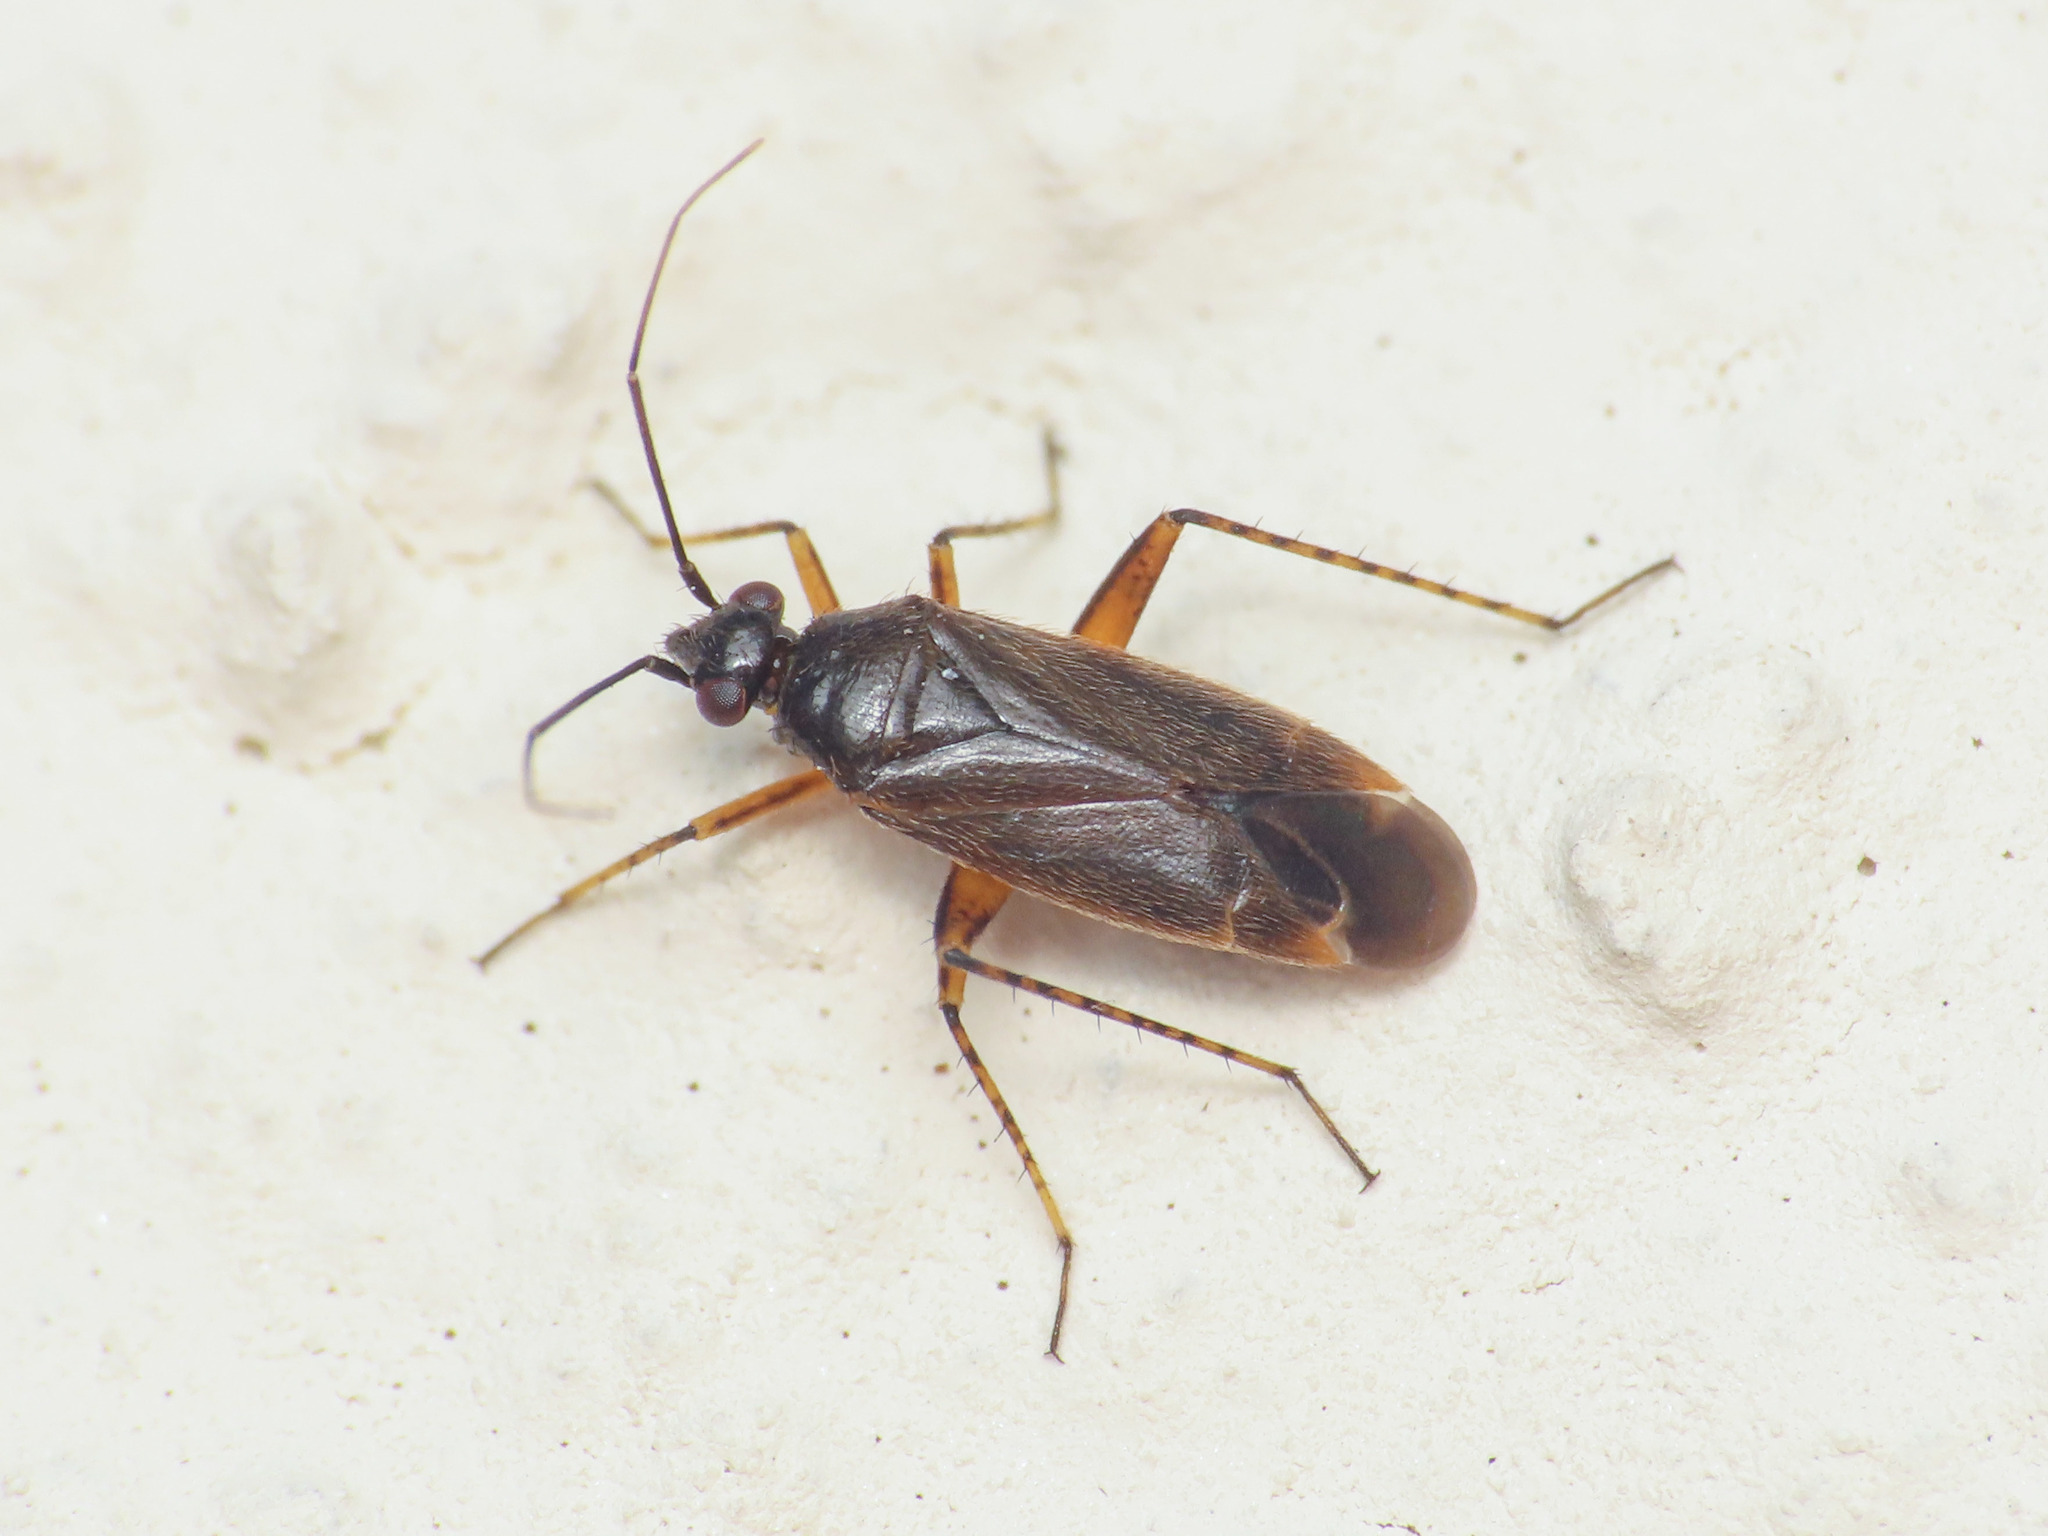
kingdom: Animalia
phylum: Arthropoda
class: Insecta
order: Hemiptera
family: Miridae
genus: Plagiognathus
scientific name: Plagiognathus arbustorum
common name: Plant bug
